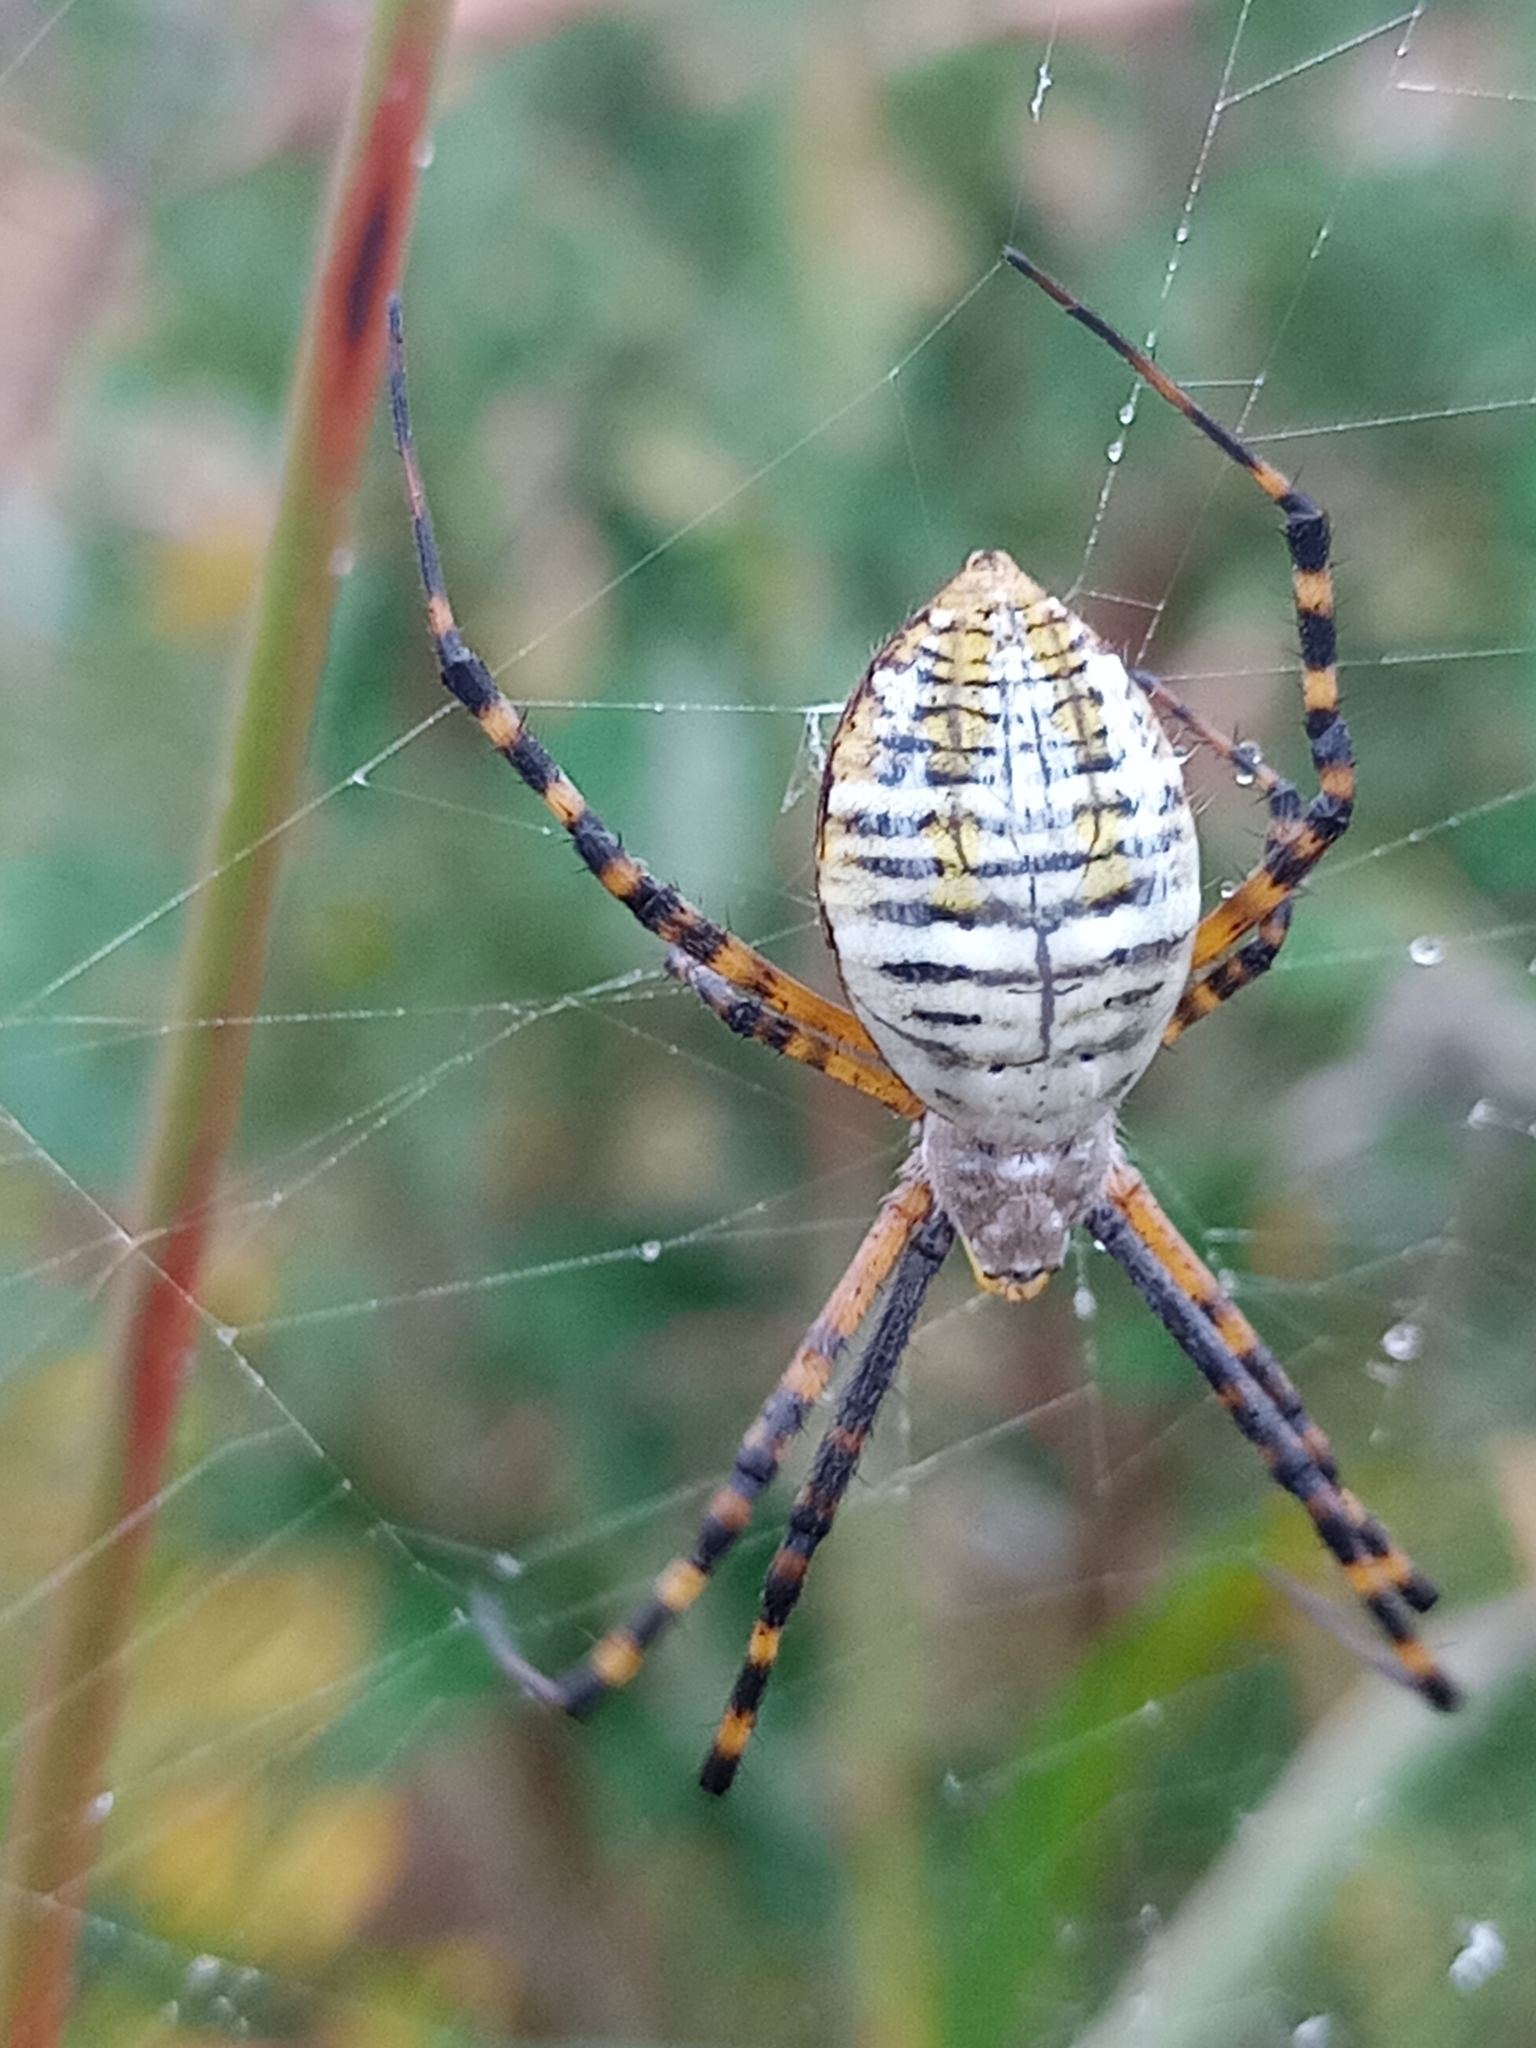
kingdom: Animalia
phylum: Arthropoda
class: Arachnida
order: Araneae
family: Araneidae
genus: Argiope
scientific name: Argiope trifasciata
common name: Banded garden spider
